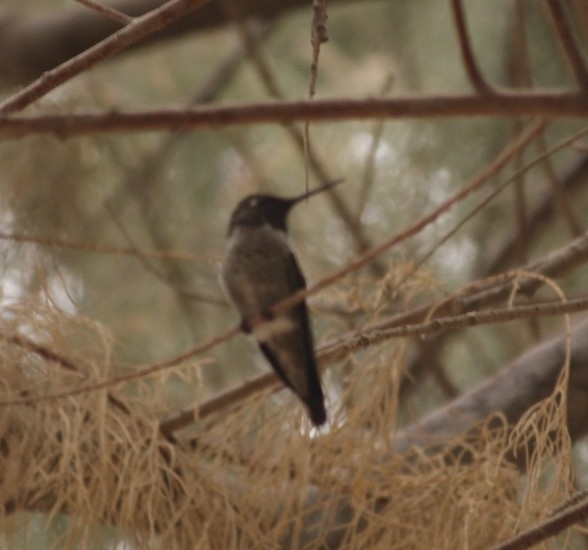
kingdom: Animalia
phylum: Chordata
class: Aves
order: Apodiformes
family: Trochilidae
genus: Calypte
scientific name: Calypte anna
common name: Anna's hummingbird
